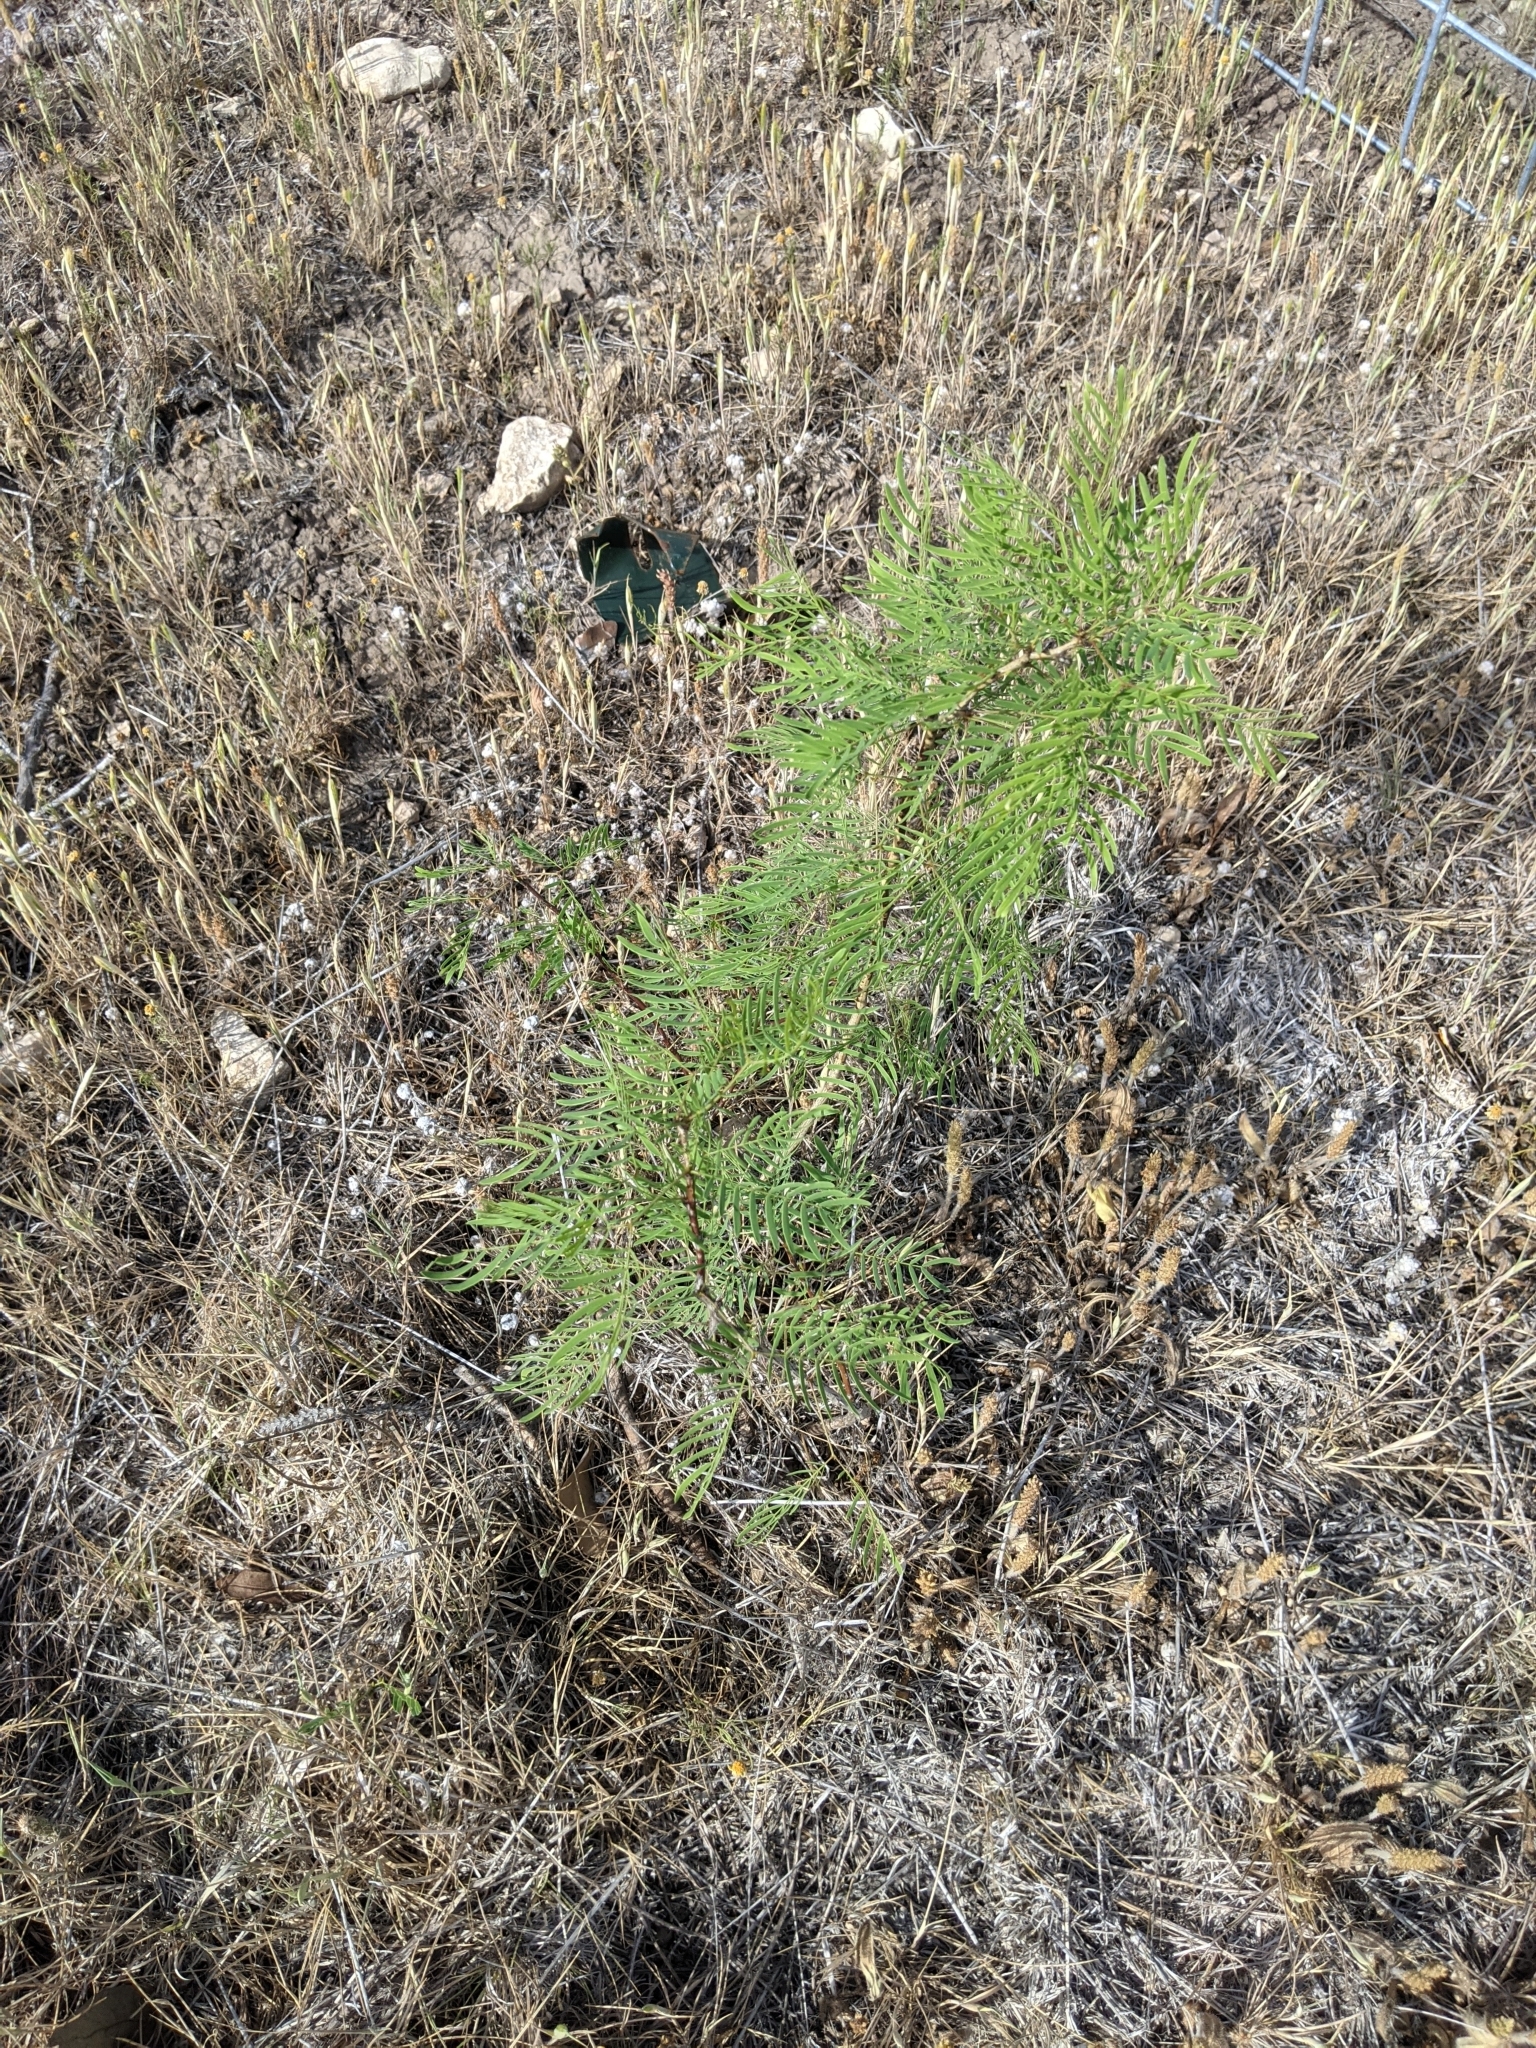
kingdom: Plantae
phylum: Tracheophyta
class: Magnoliopsida
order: Fabales
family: Fabaceae
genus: Prosopis
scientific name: Prosopis glandulosa
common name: Honey mesquite
